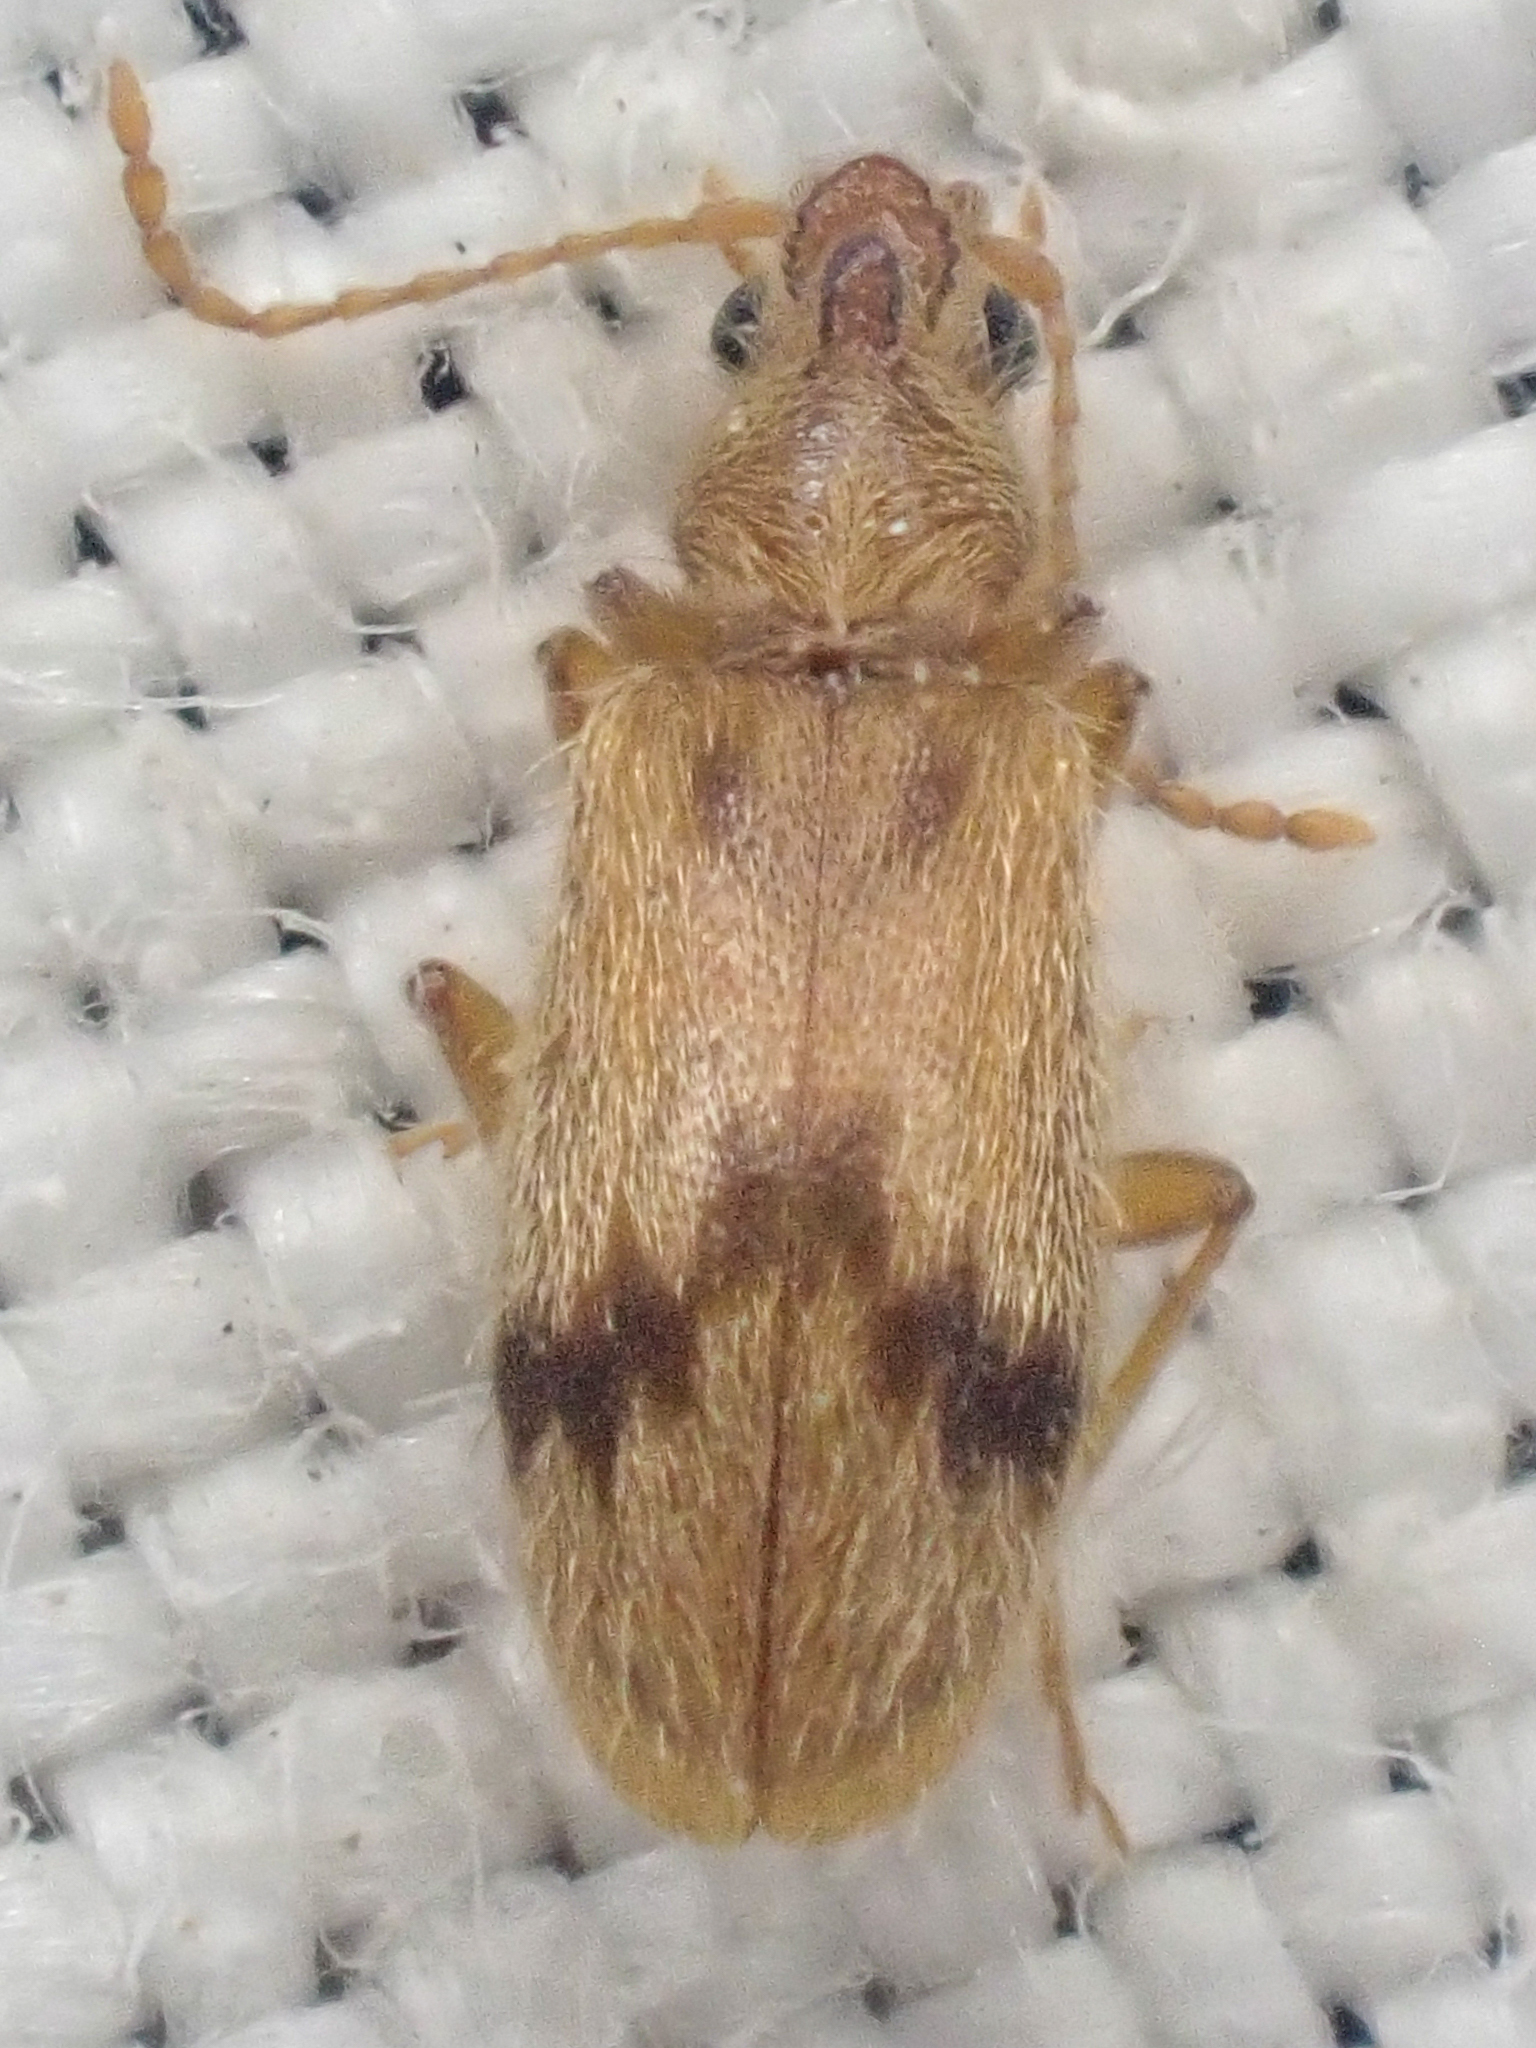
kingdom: Animalia
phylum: Arthropoda
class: Insecta
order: Coleoptera
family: Anthicidae
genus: Notoxus
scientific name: Notoxus desertus
